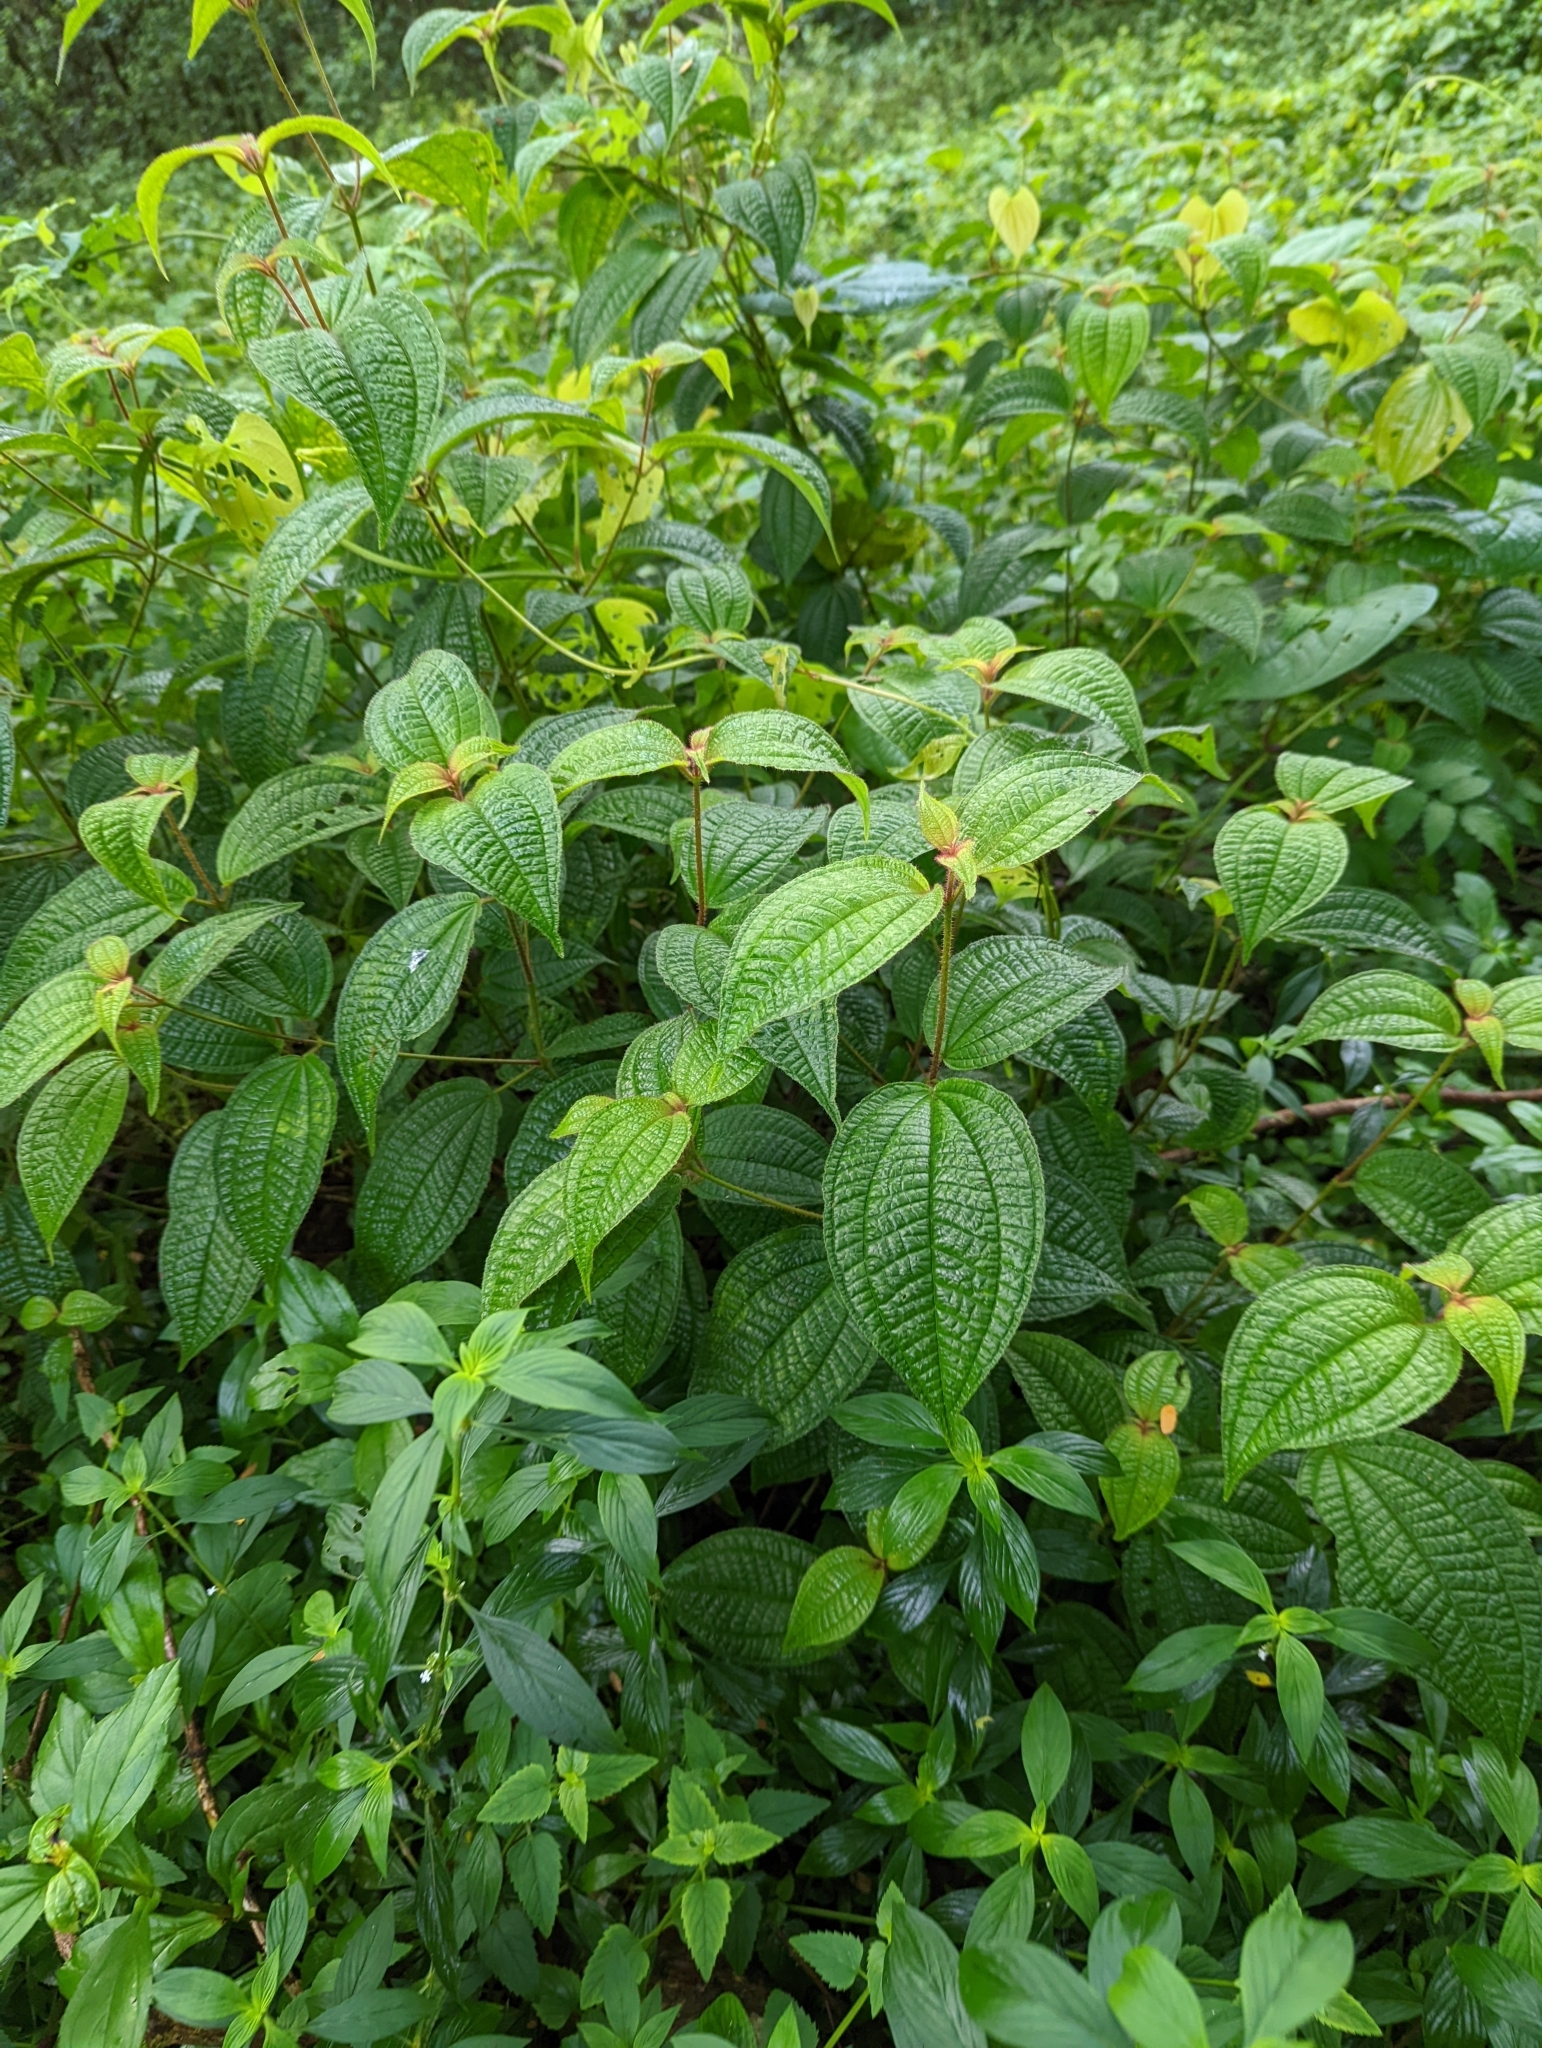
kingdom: Plantae
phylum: Tracheophyta
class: Magnoliopsida
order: Myrtales
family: Melastomataceae
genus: Miconia
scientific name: Miconia crenata
